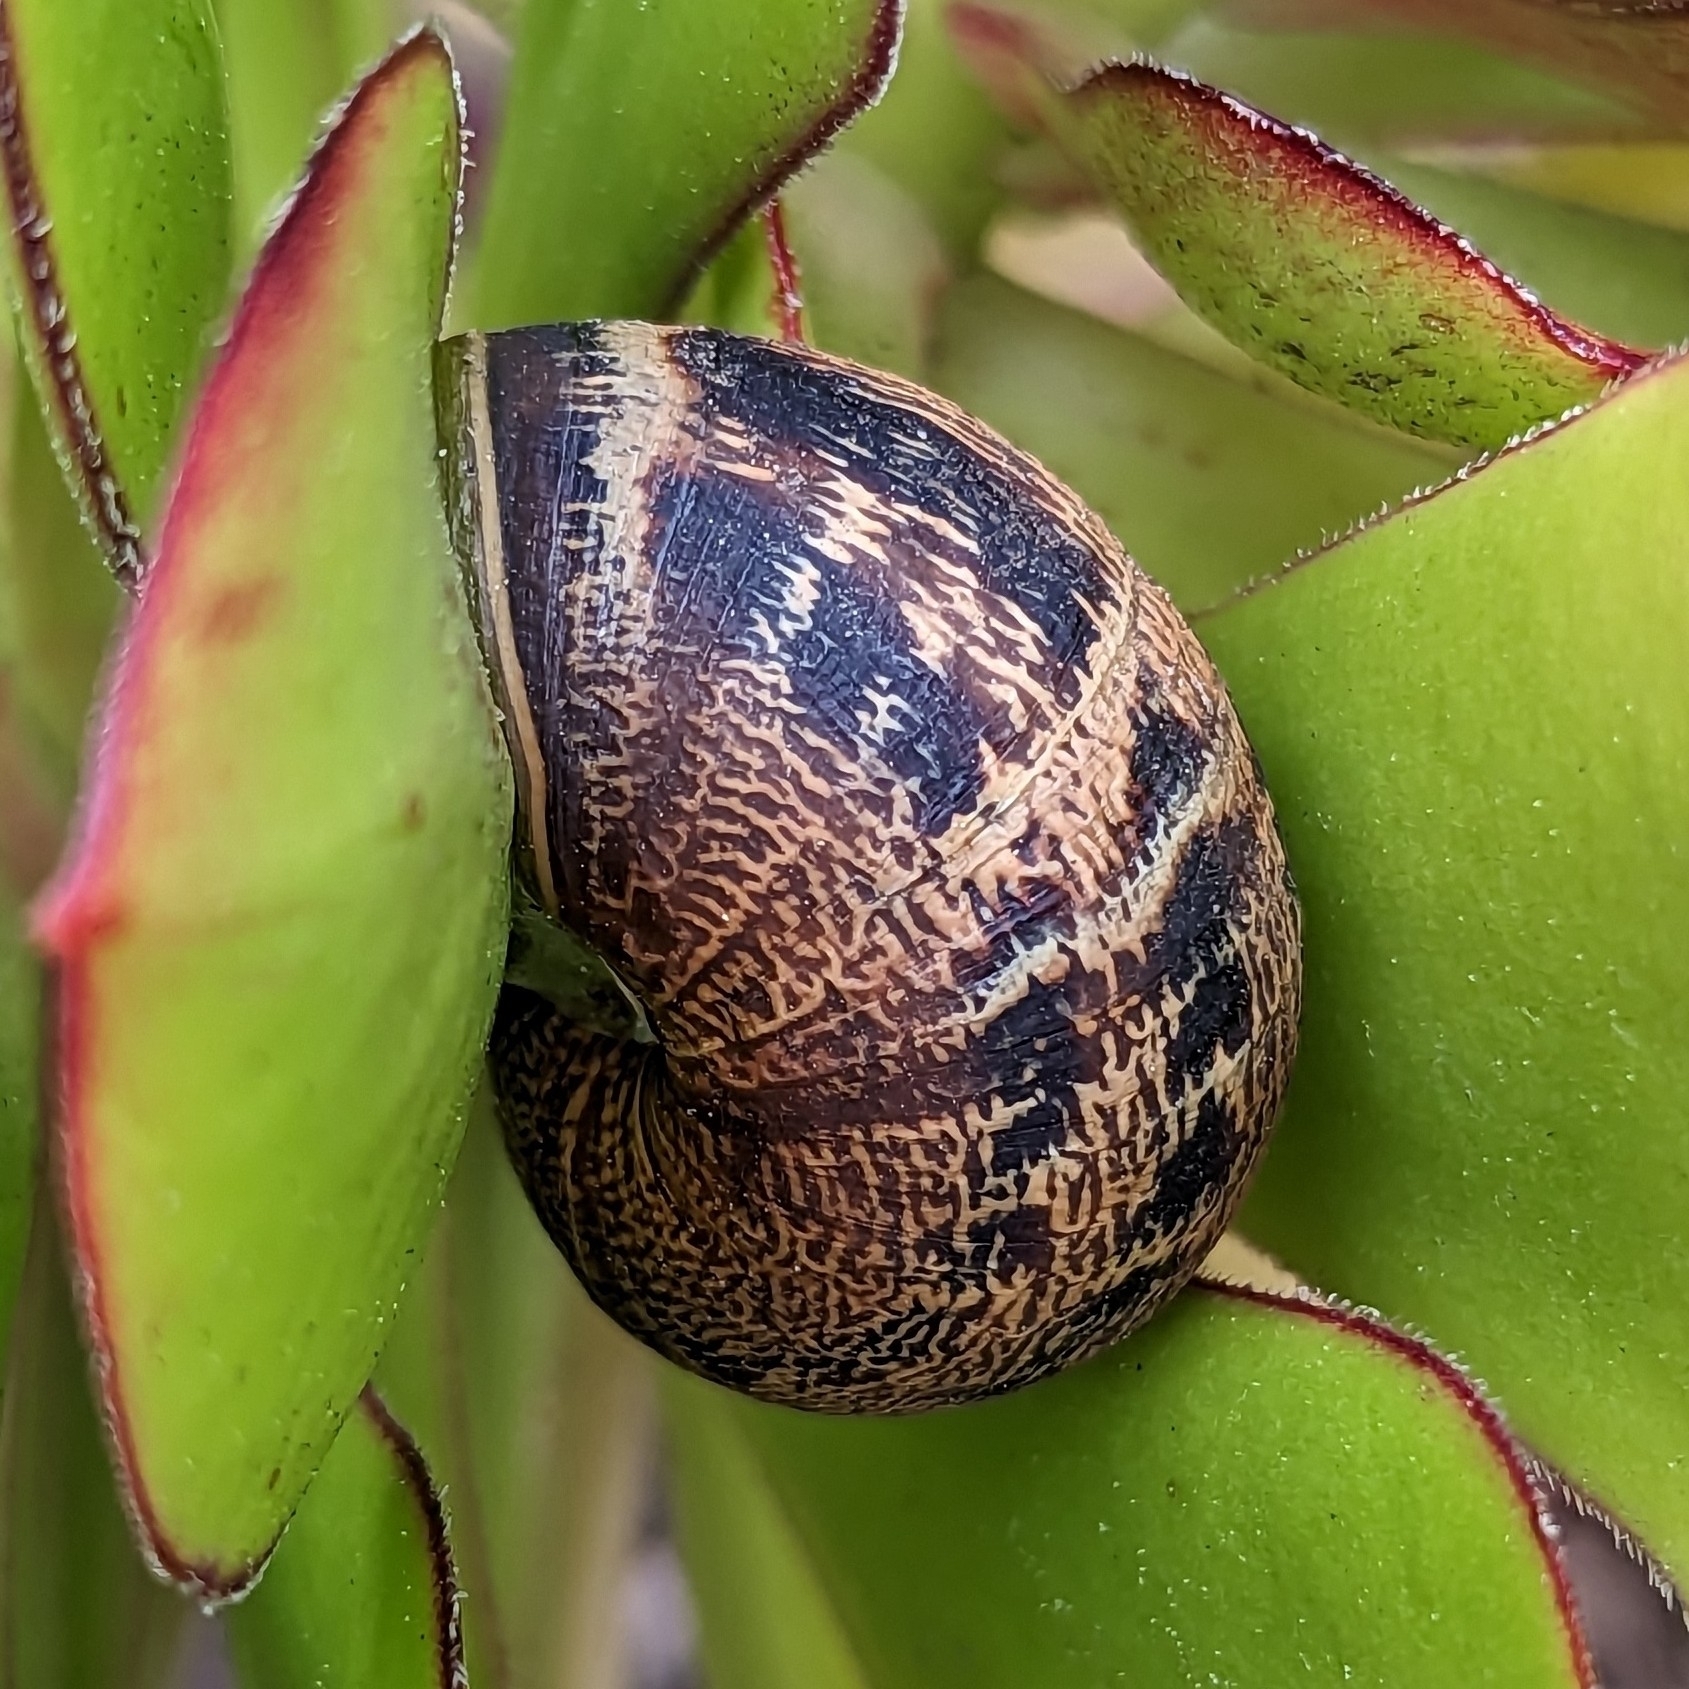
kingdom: Animalia
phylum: Mollusca
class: Gastropoda
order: Stylommatophora
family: Helicidae
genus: Cornu
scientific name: Cornu aspersum
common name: Brown garden snail
